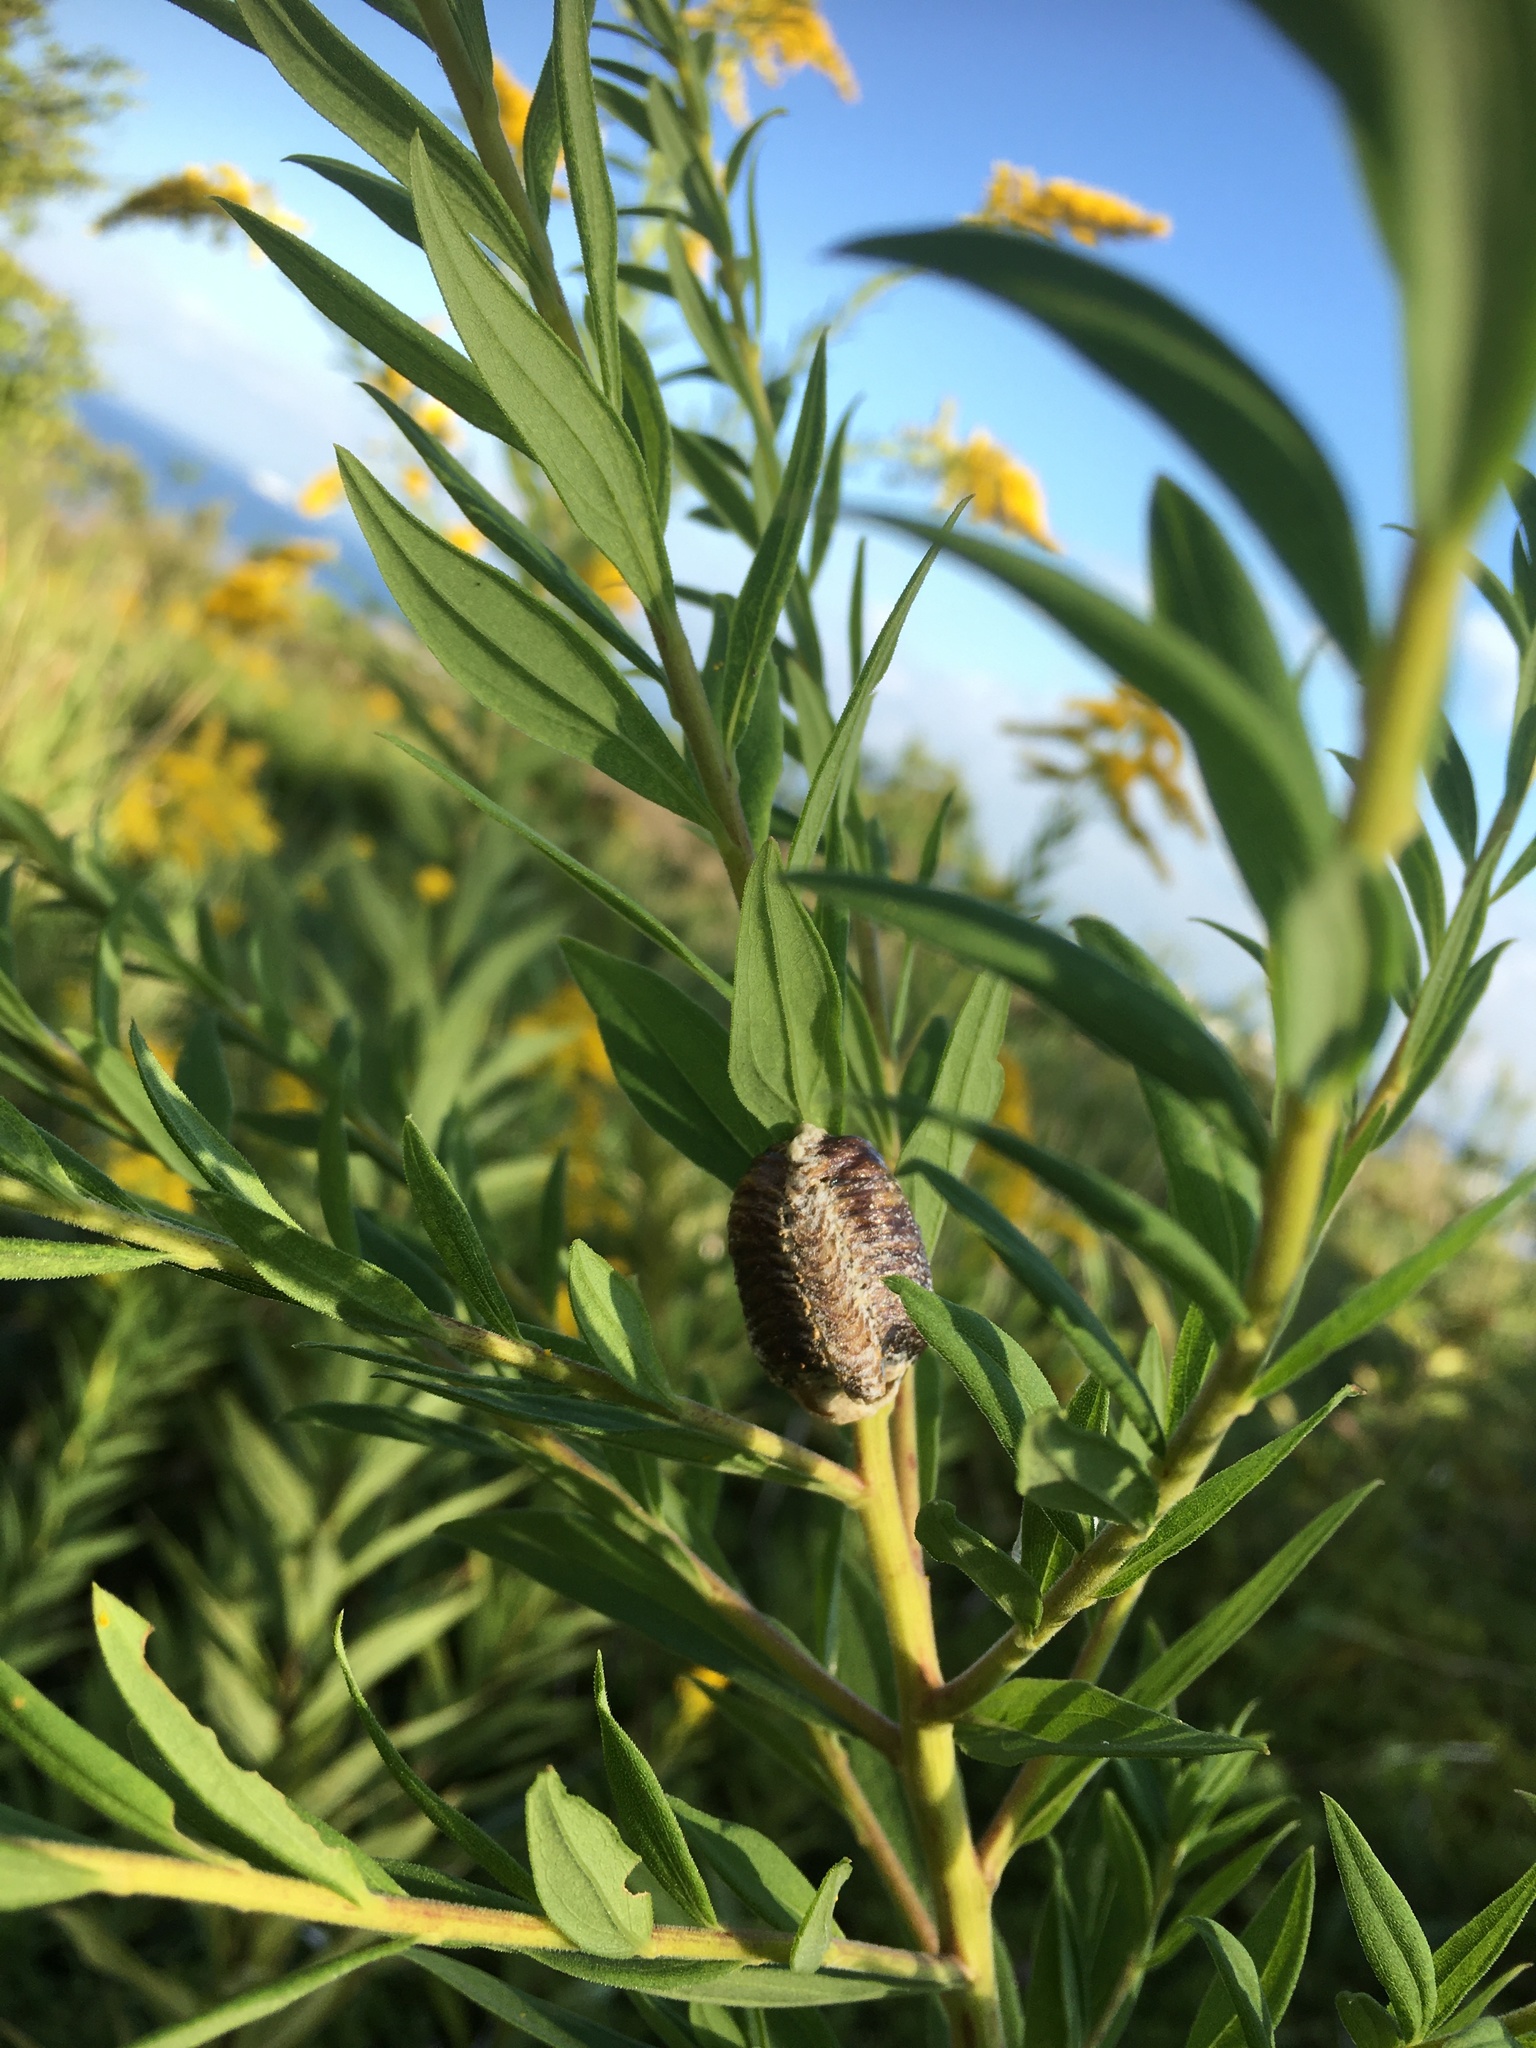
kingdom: Animalia
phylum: Arthropoda
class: Insecta
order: Mantodea
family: Mantidae
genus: Hierodula
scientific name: Hierodula patellifera
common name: Asian mantis
